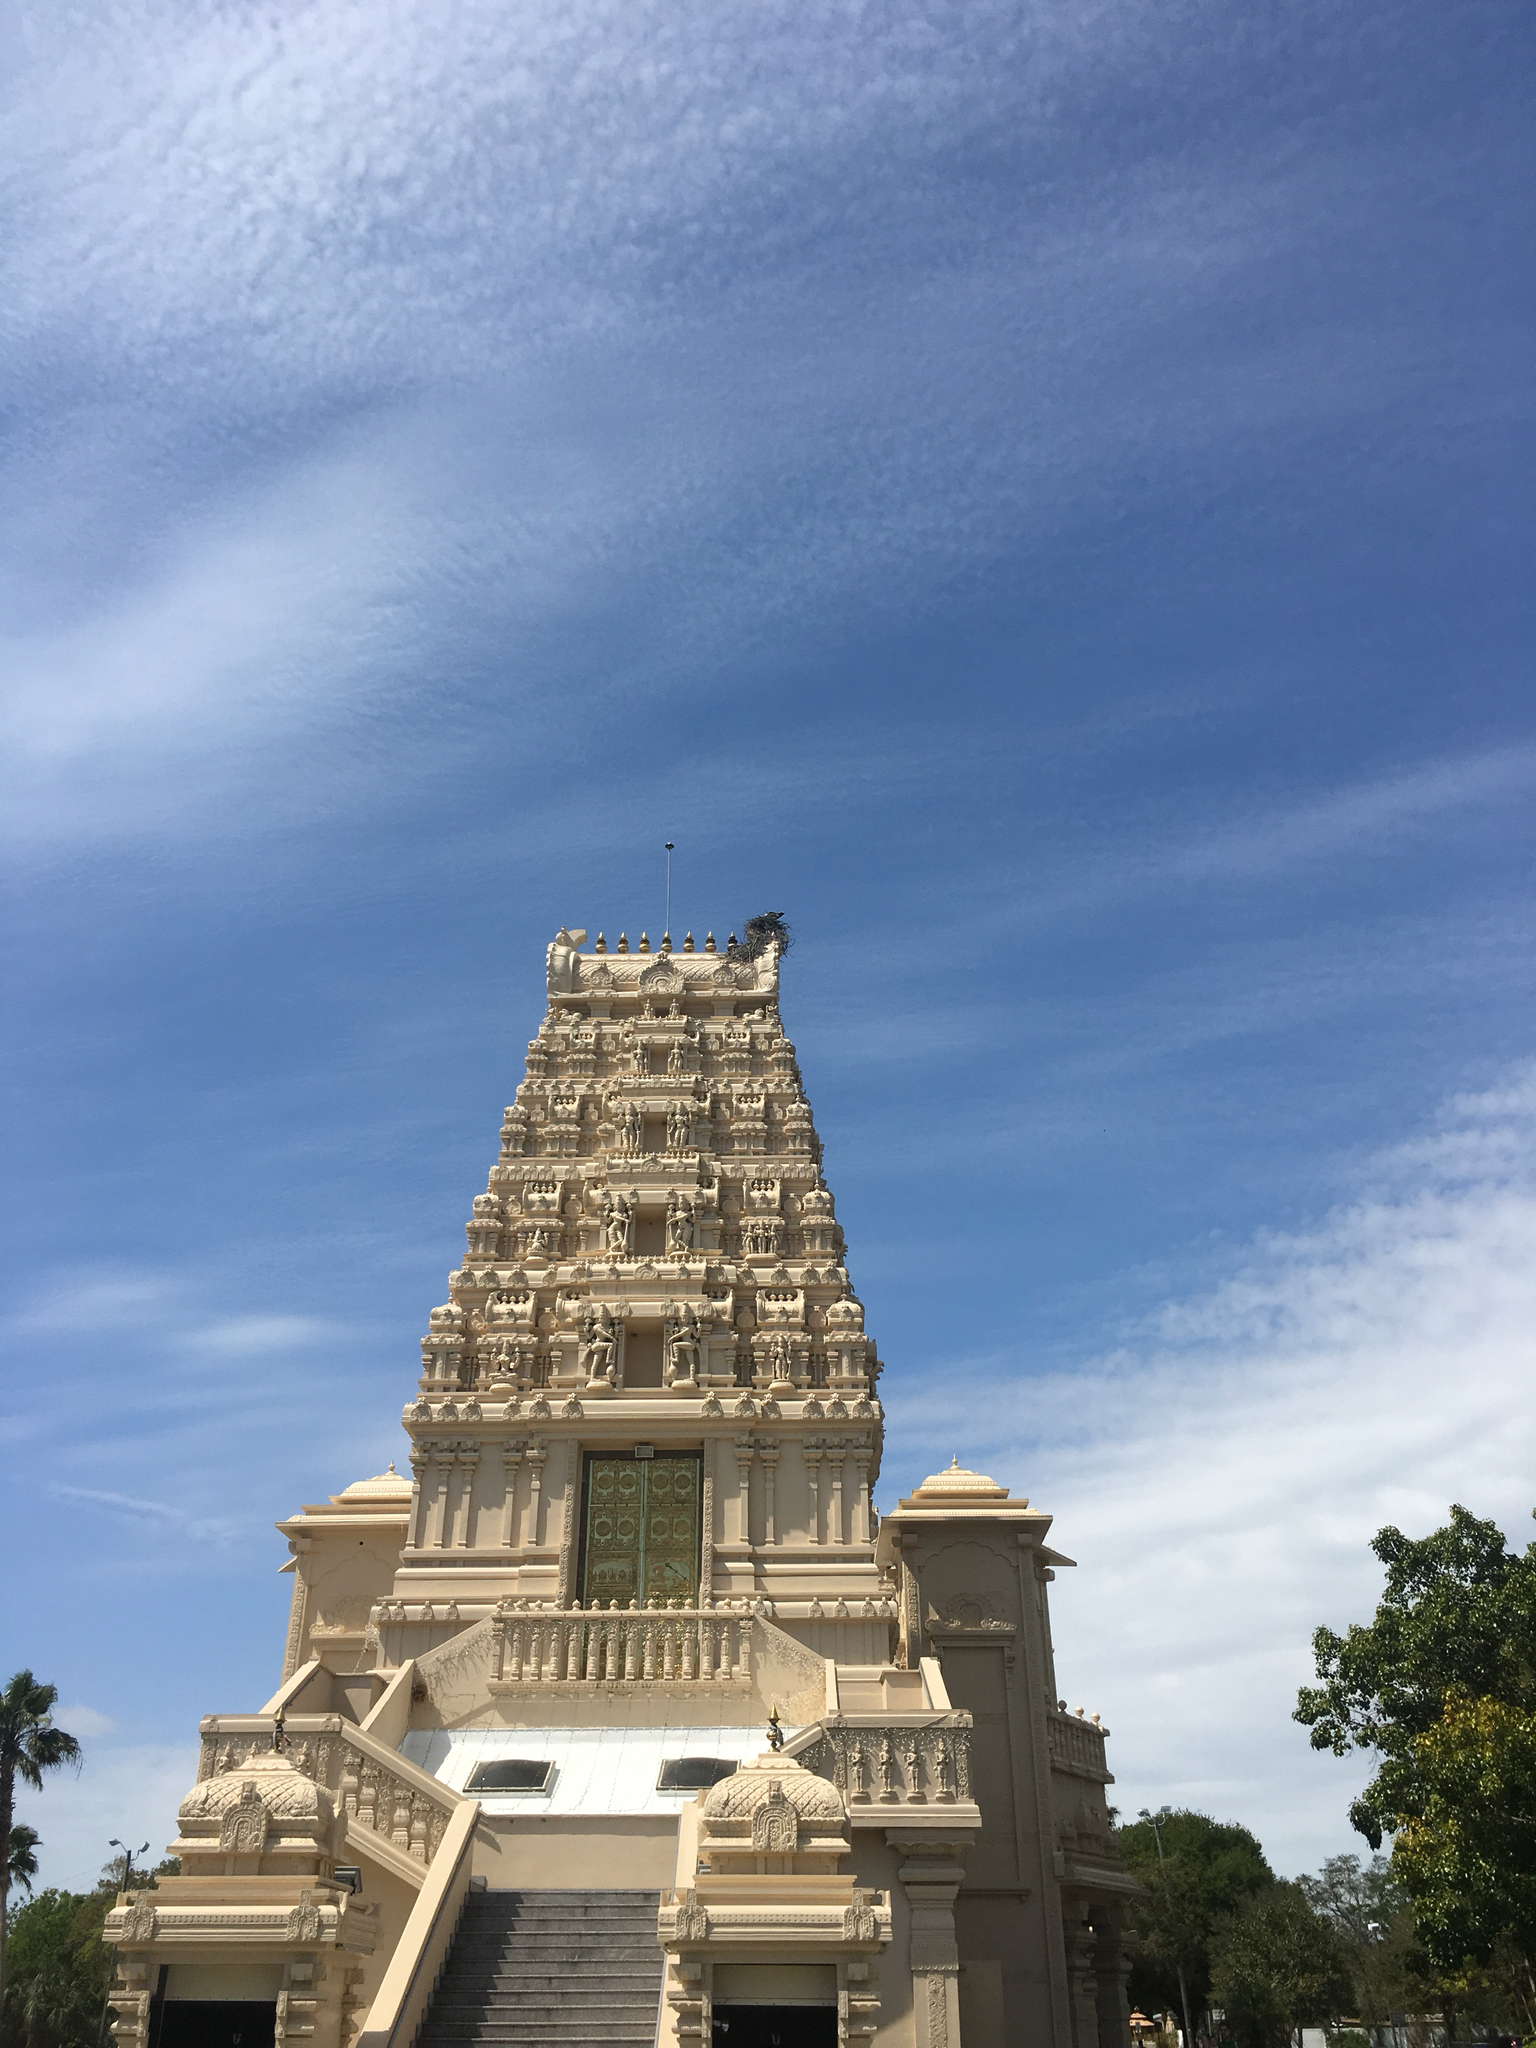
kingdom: Animalia
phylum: Chordata
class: Aves
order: Accipitriformes
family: Pandionidae
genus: Pandion
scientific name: Pandion haliaetus
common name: Osprey
